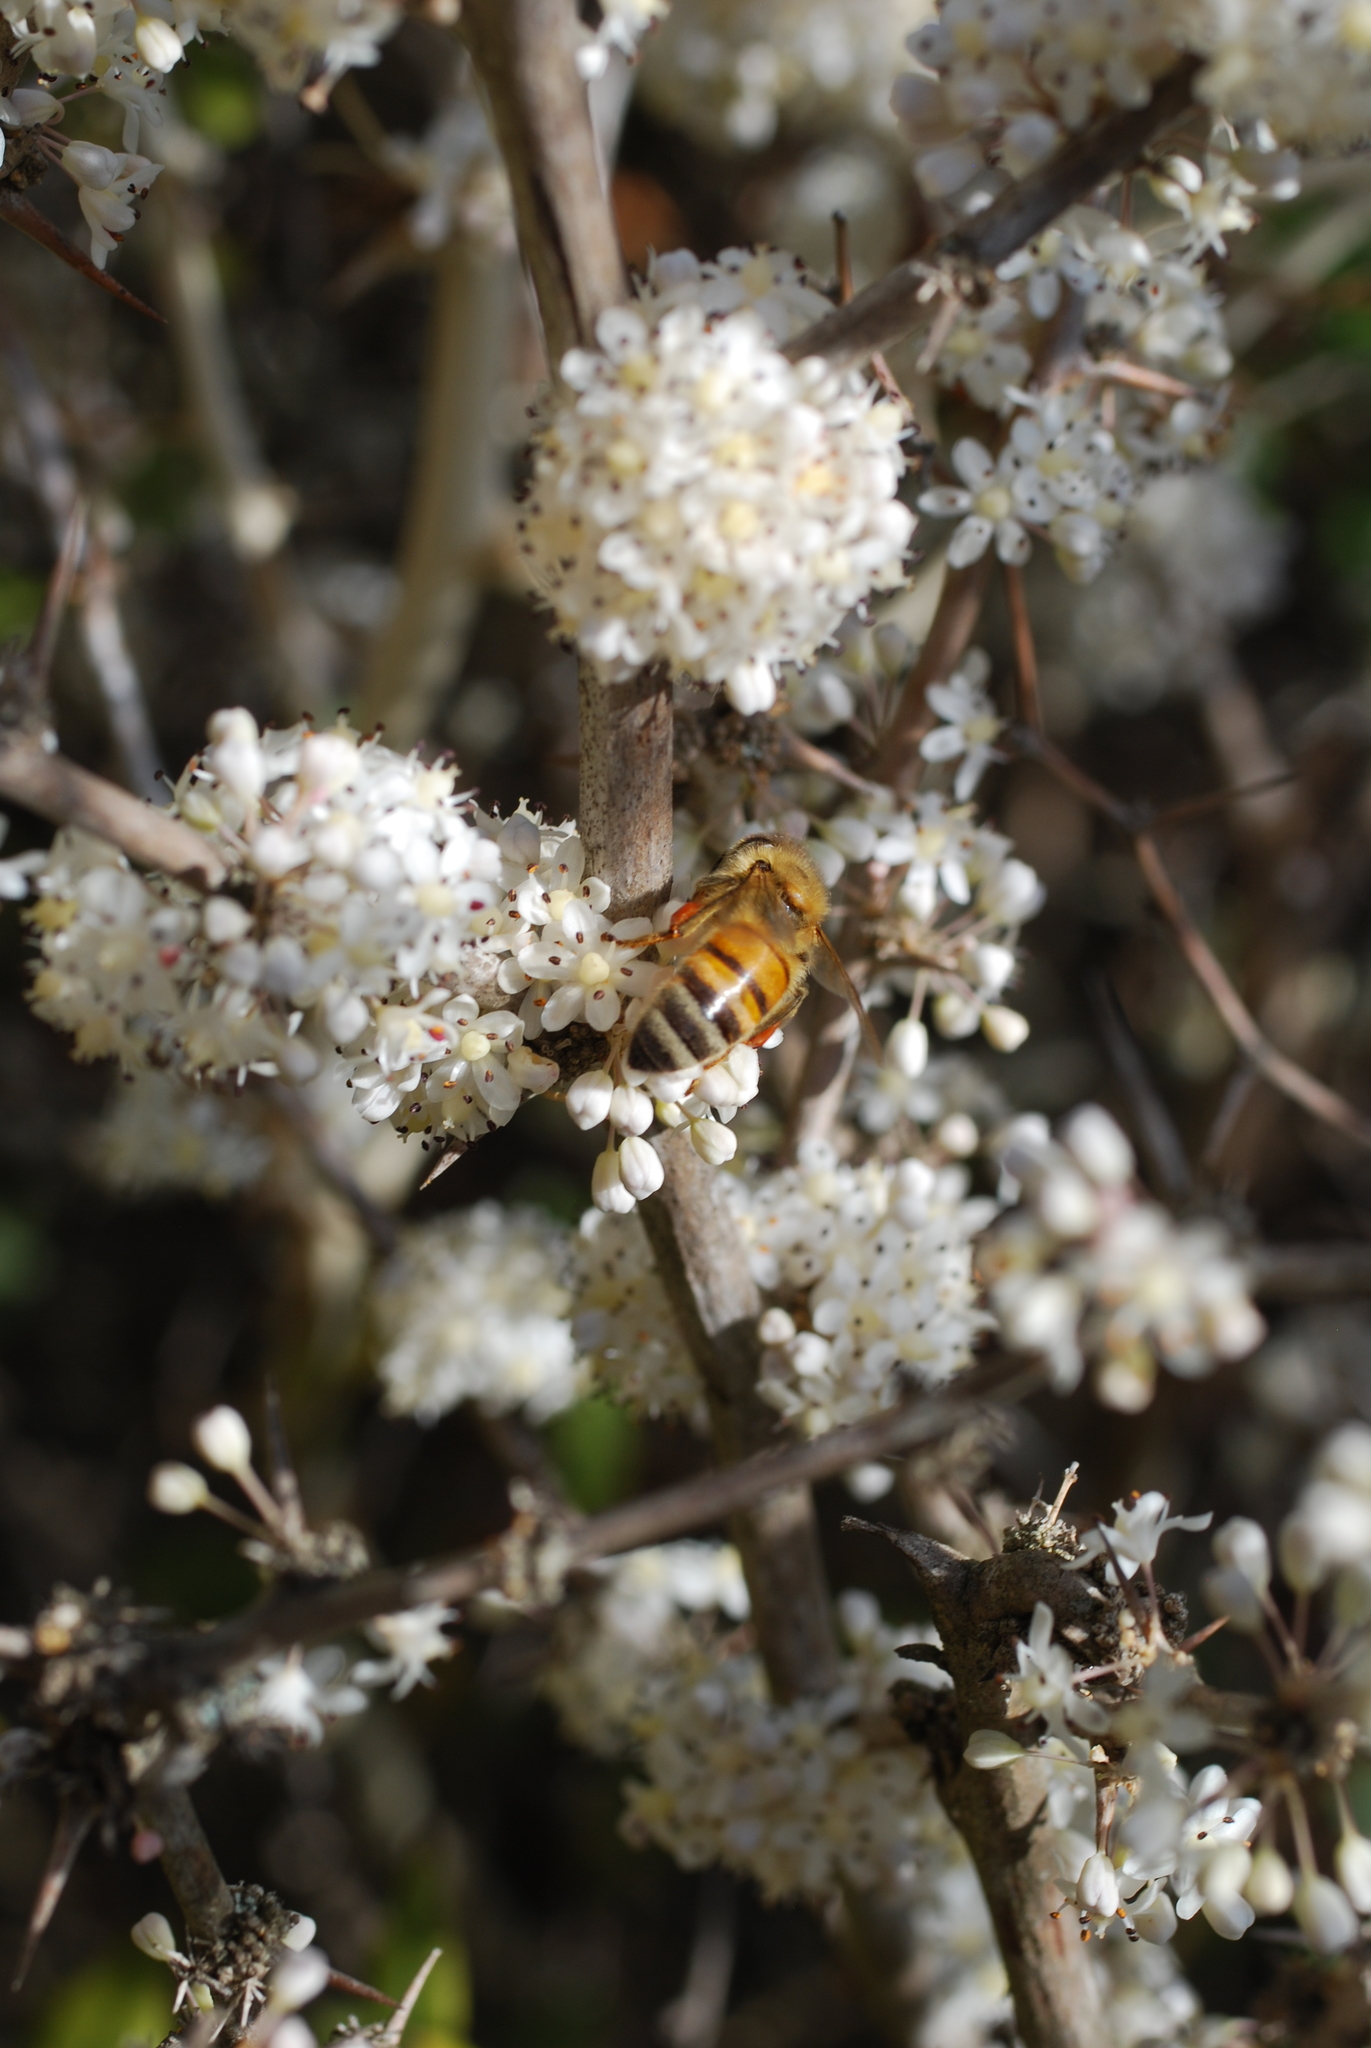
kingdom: Animalia
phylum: Arthropoda
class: Insecta
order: Hymenoptera
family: Apidae
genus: Apis
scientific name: Apis mellifera
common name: Honey bee
